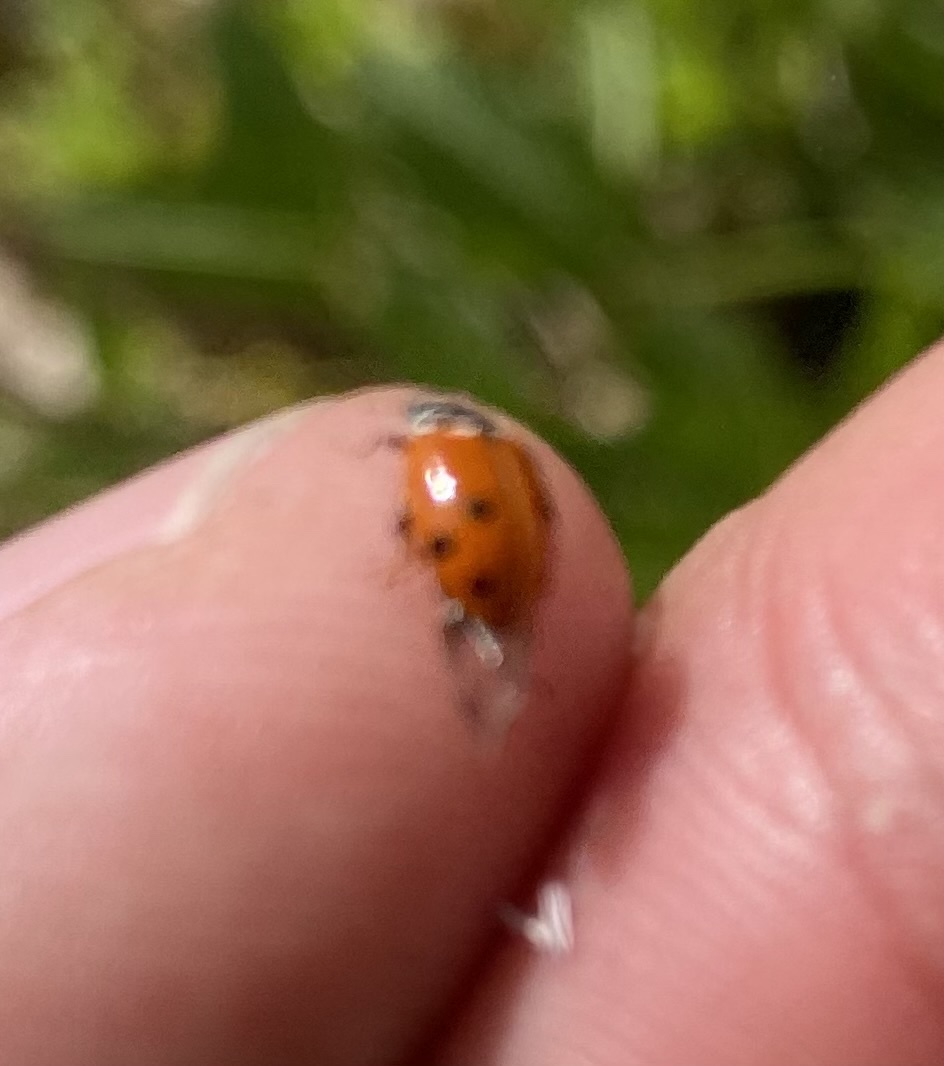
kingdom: Animalia
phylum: Arthropoda
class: Insecta
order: Coleoptera
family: Coccinellidae
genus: Hippodamia
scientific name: Hippodamia variegata
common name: Ladybird beetle
